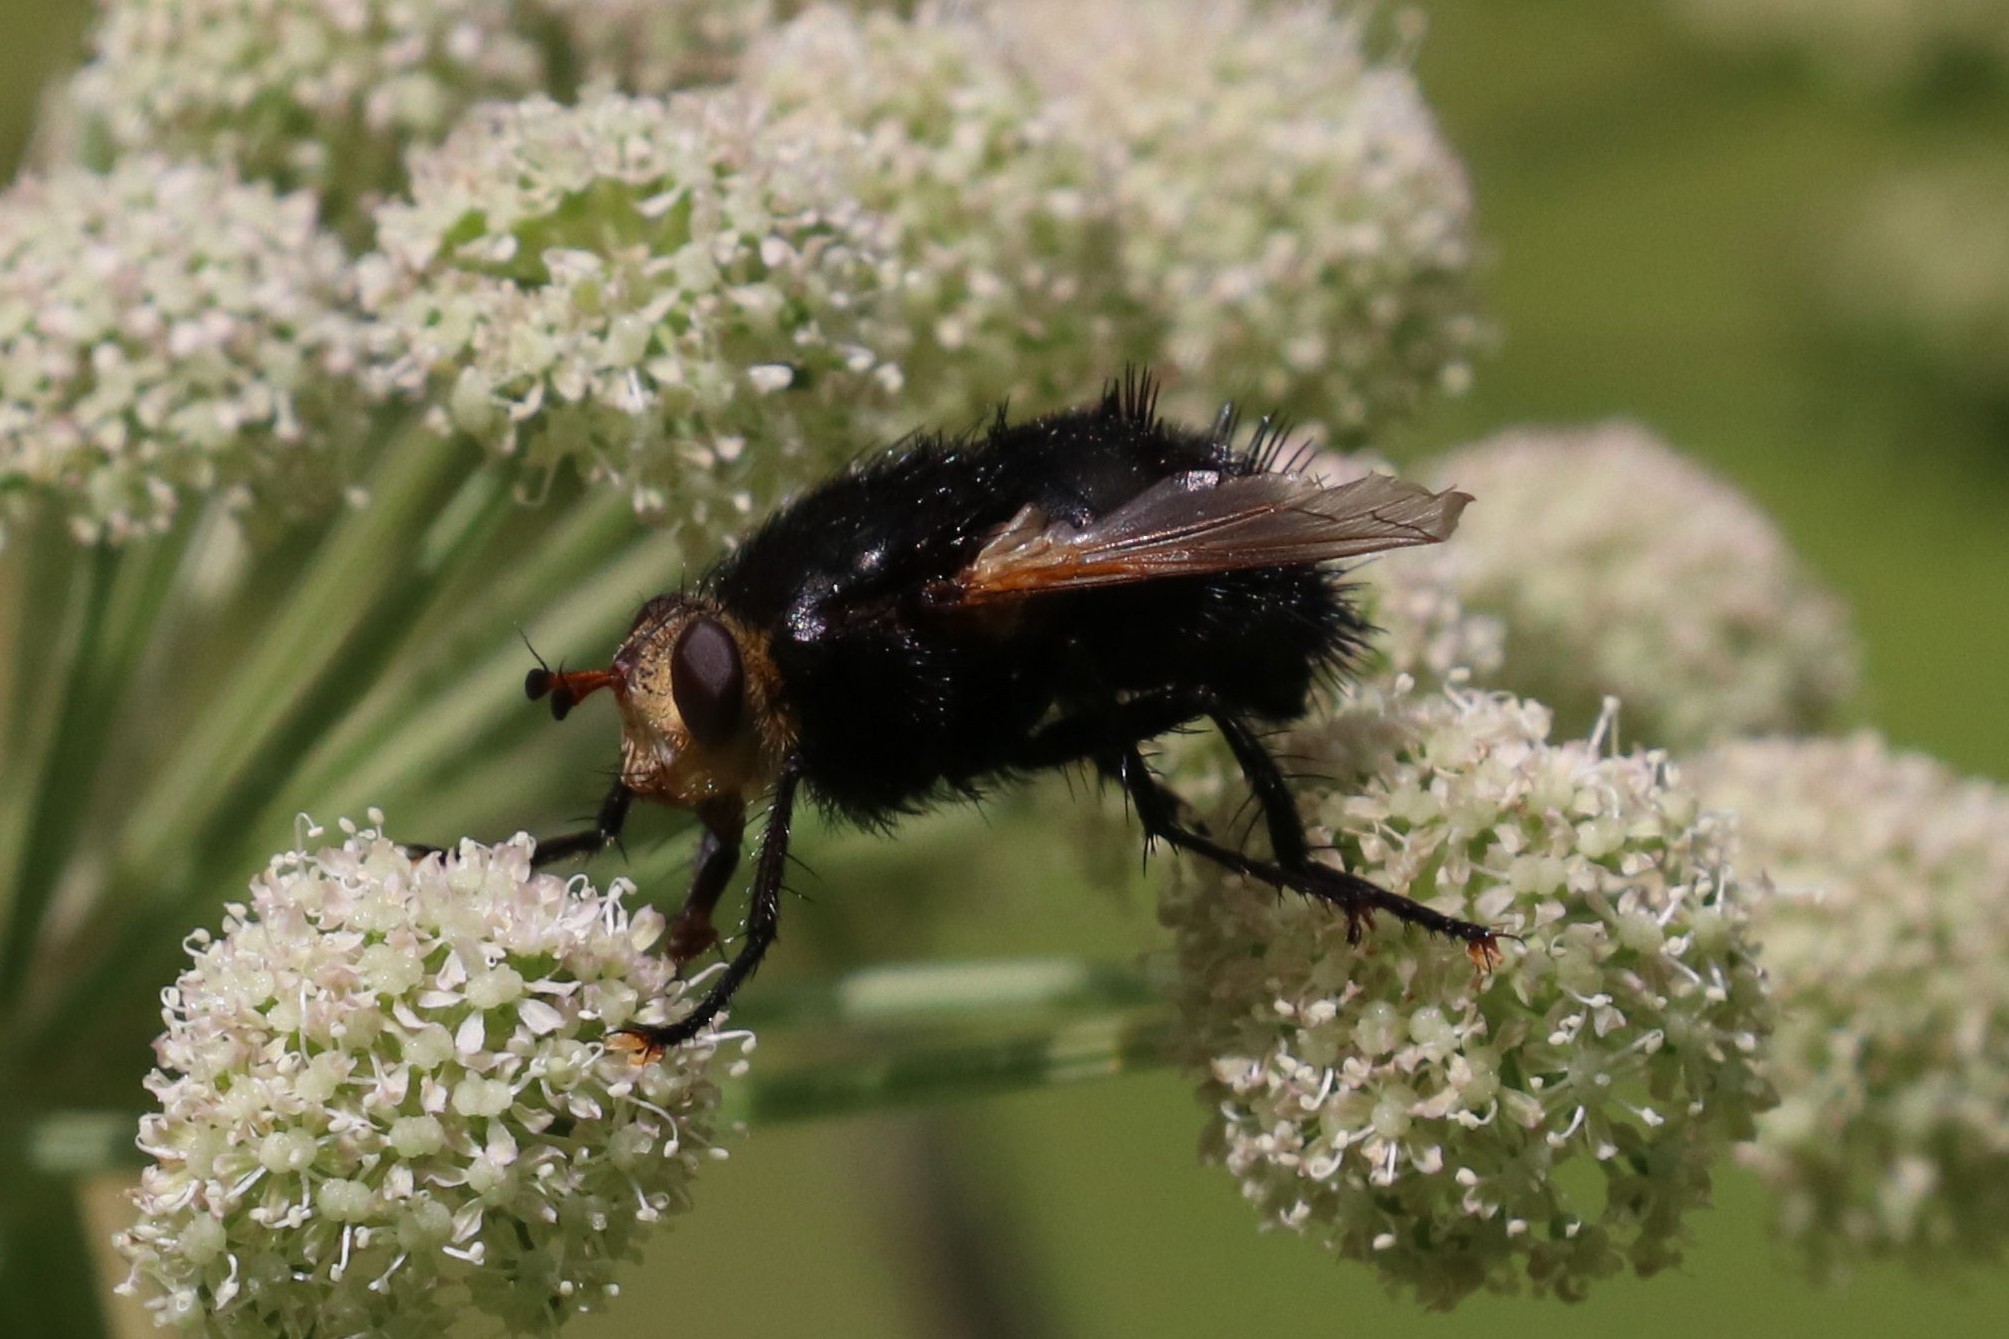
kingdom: Animalia
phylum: Arthropoda
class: Insecta
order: Diptera
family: Tachinidae
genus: Tachina
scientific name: Tachina grossa
